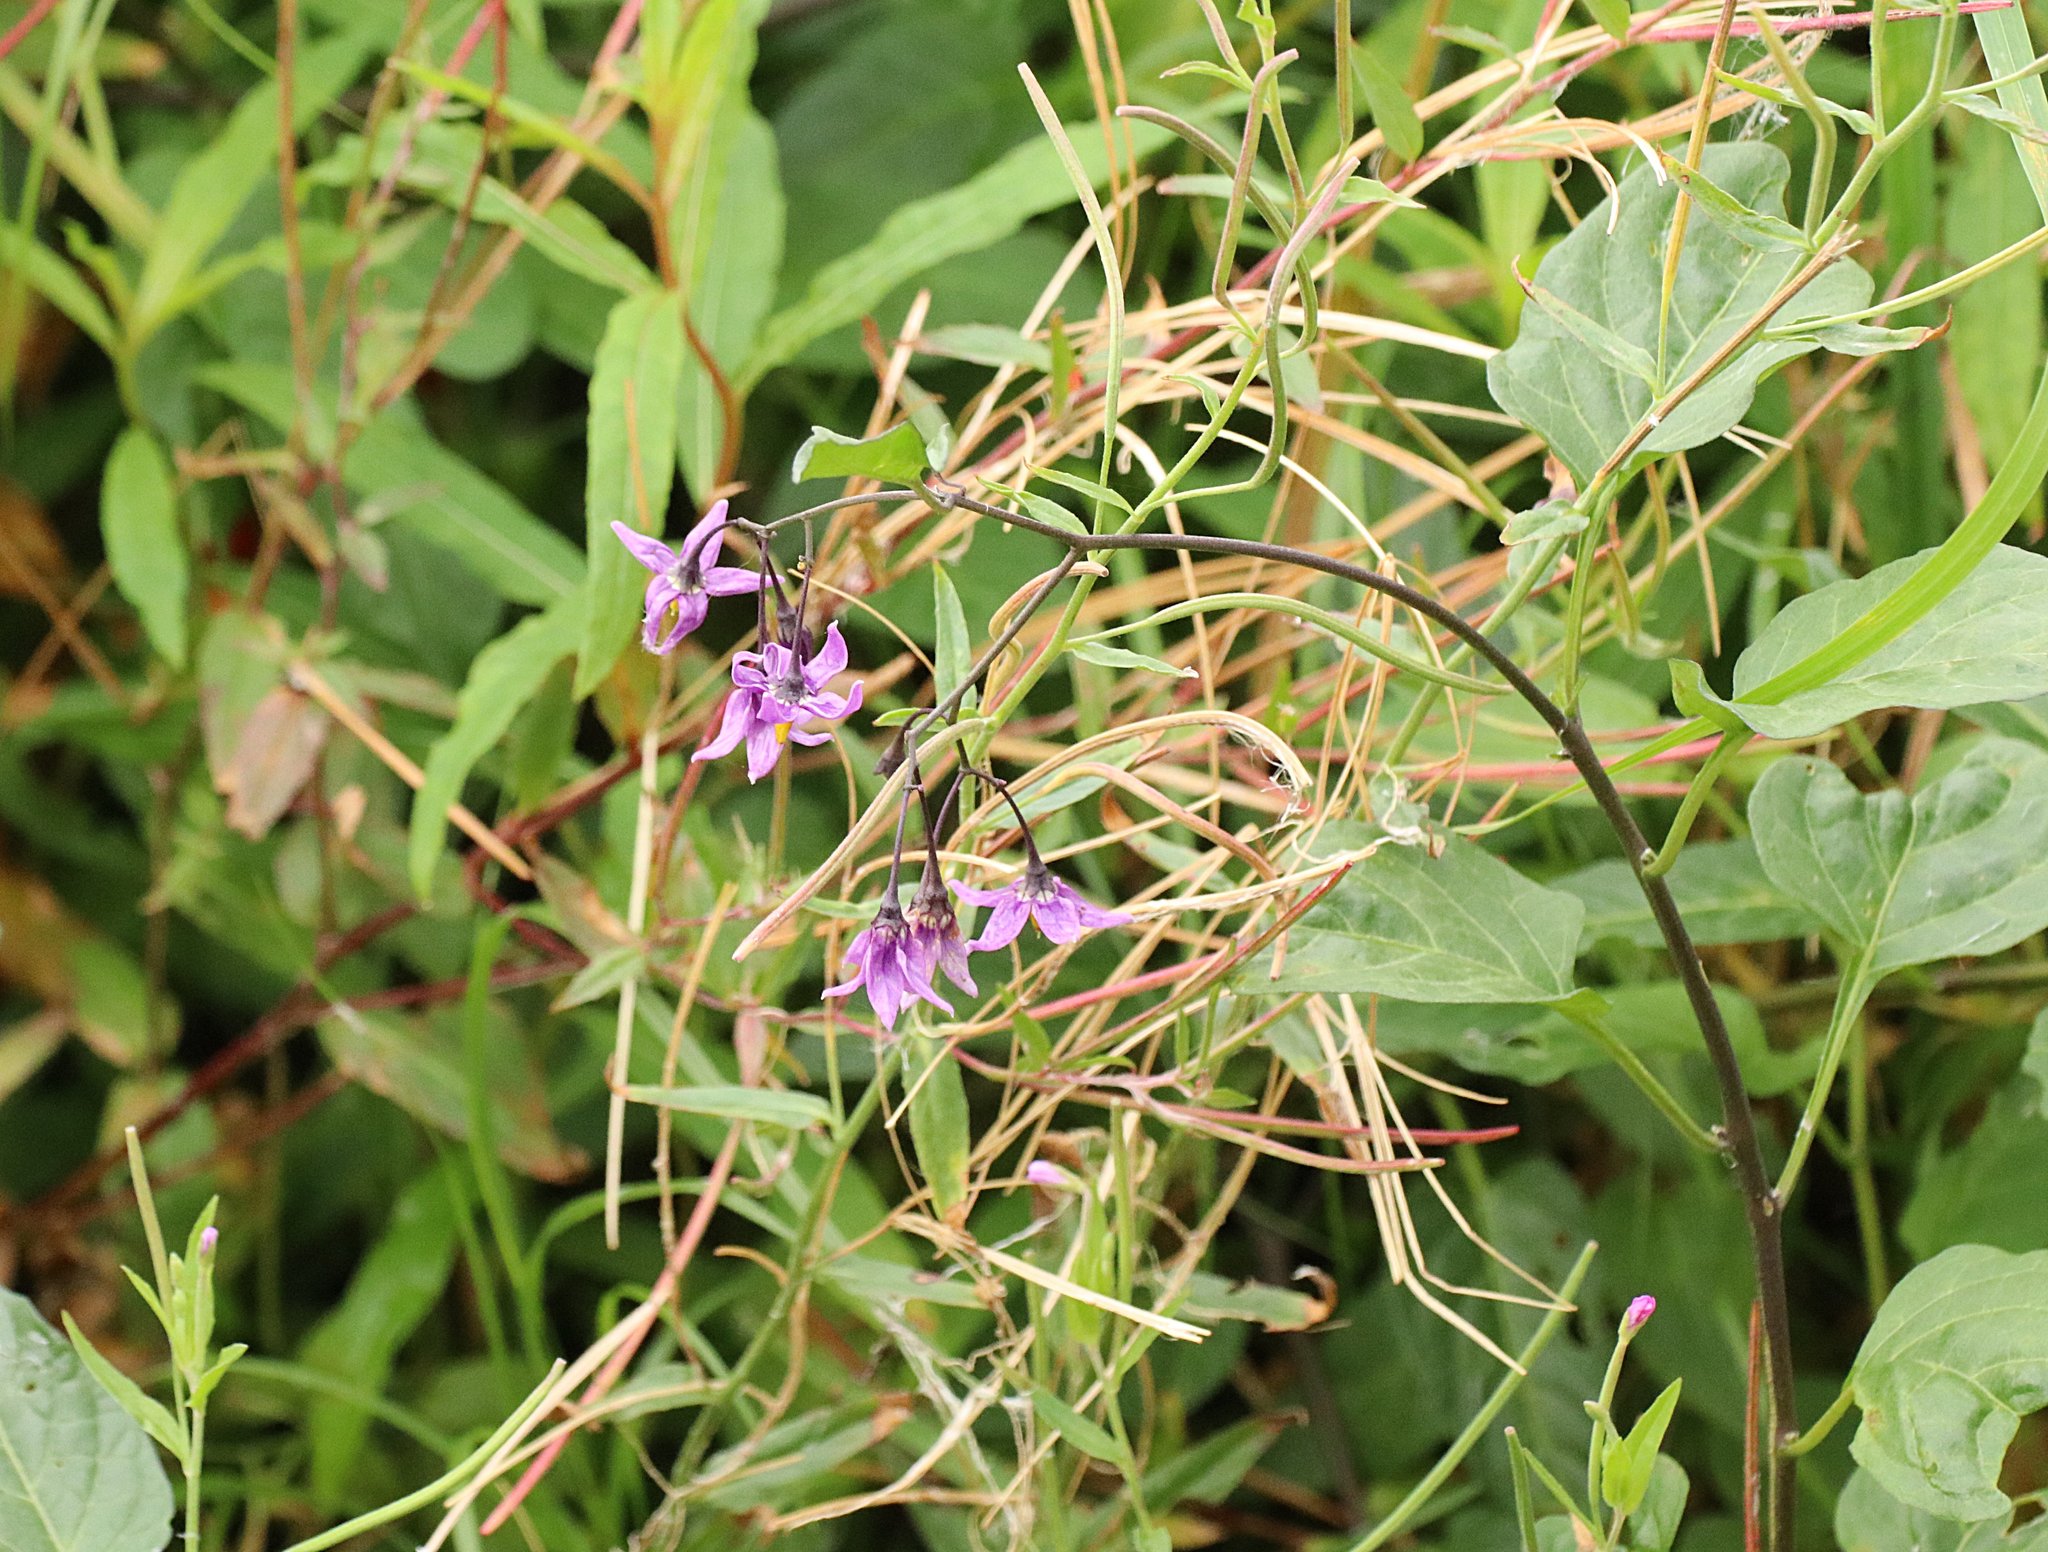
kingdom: Plantae
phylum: Tracheophyta
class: Magnoliopsida
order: Solanales
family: Solanaceae
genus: Solanum
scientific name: Solanum dulcamara
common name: Climbing nightshade
